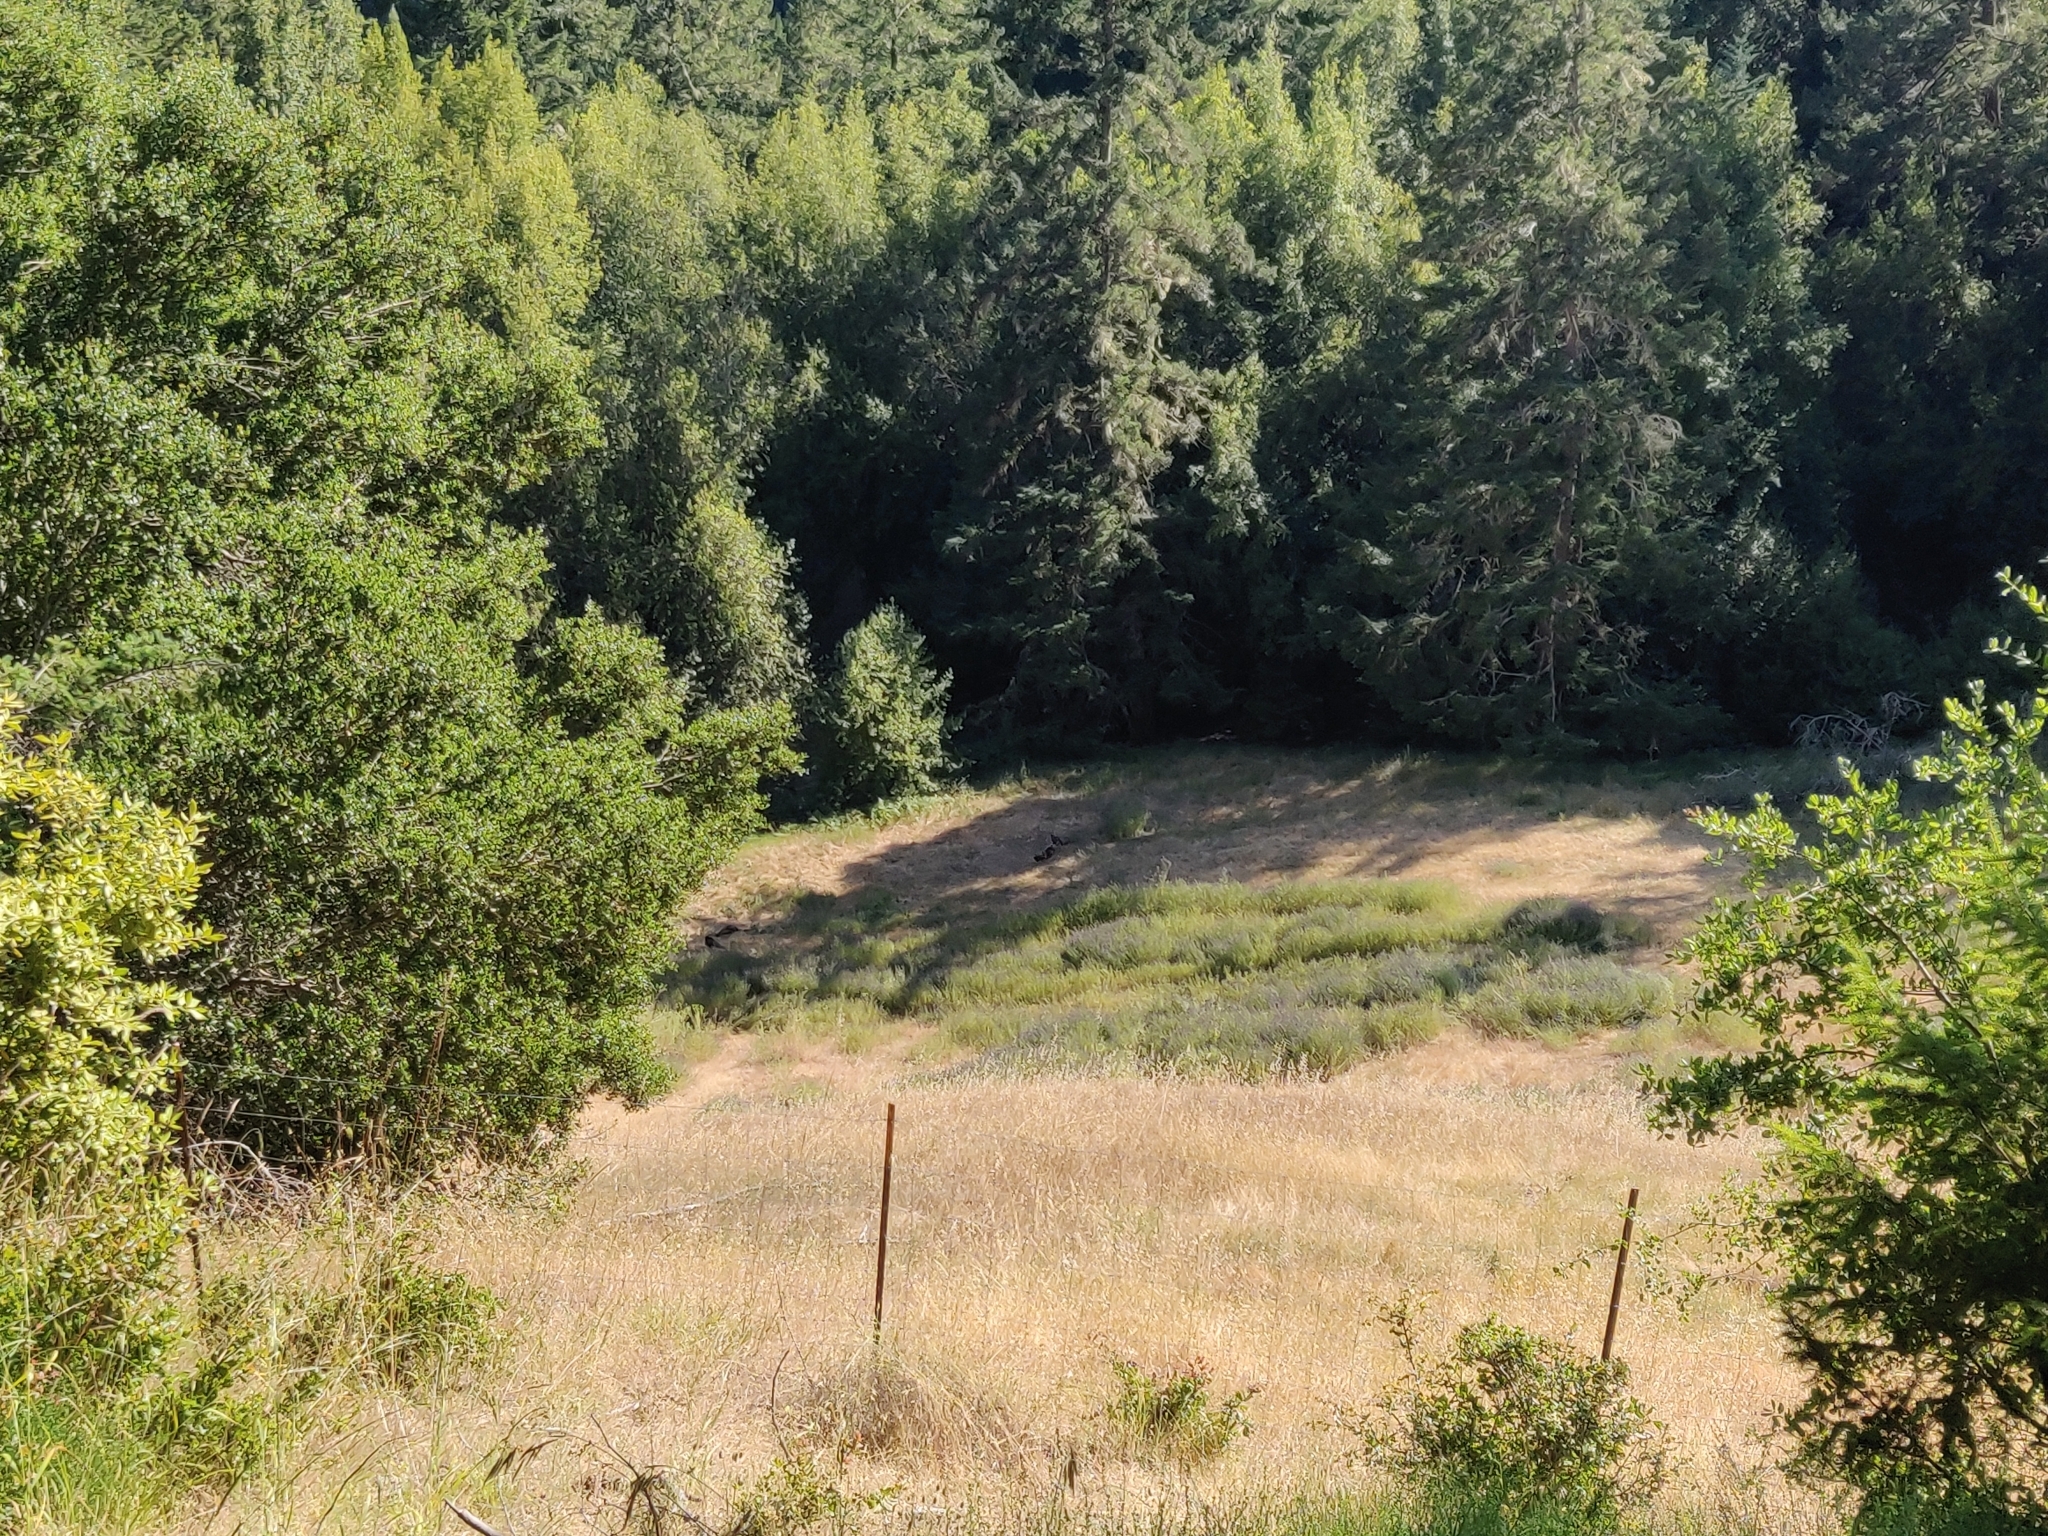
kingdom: Animalia
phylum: Chordata
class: Aves
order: Galliformes
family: Phasianidae
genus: Meleagris
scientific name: Meleagris gallopavo
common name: Wild turkey
